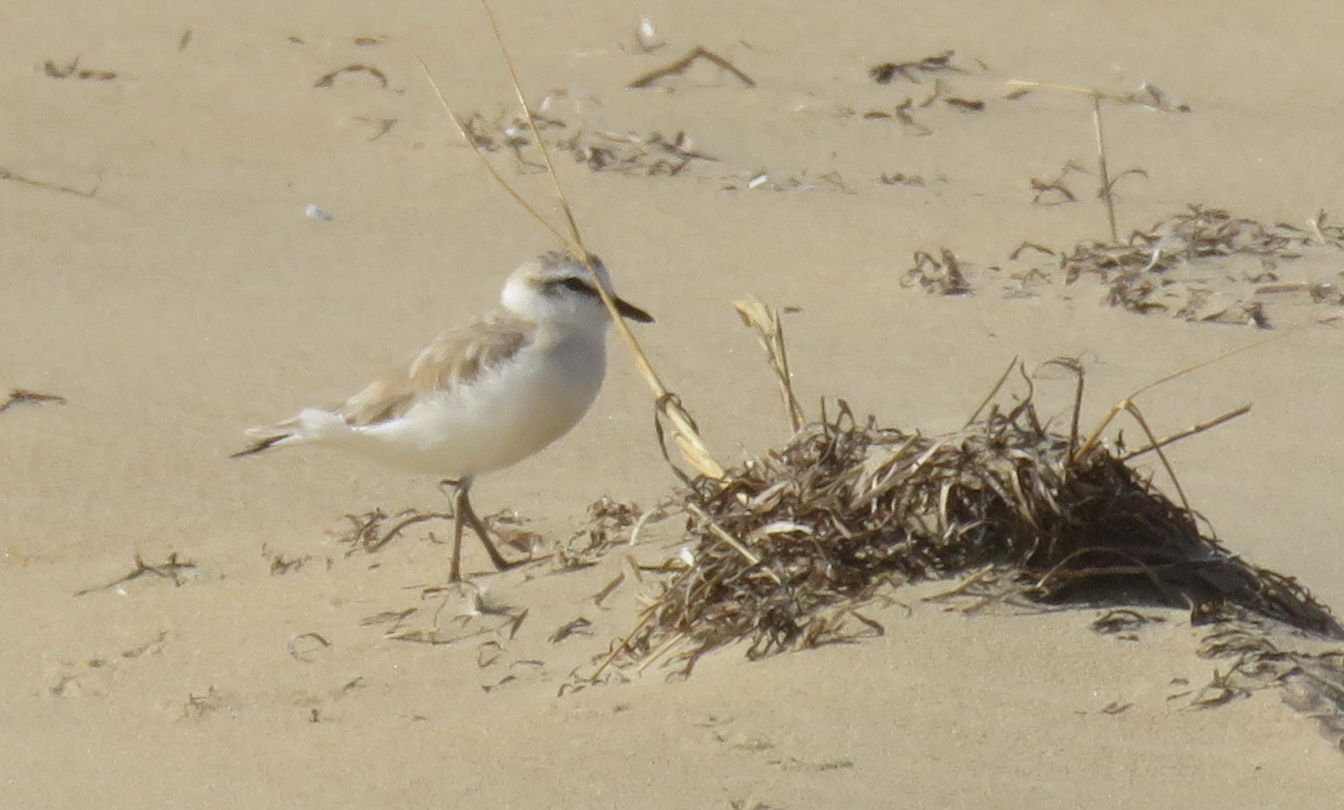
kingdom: Animalia
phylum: Chordata
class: Aves
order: Charadriiformes
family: Charadriidae
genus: Anarhynchus
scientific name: Anarhynchus
